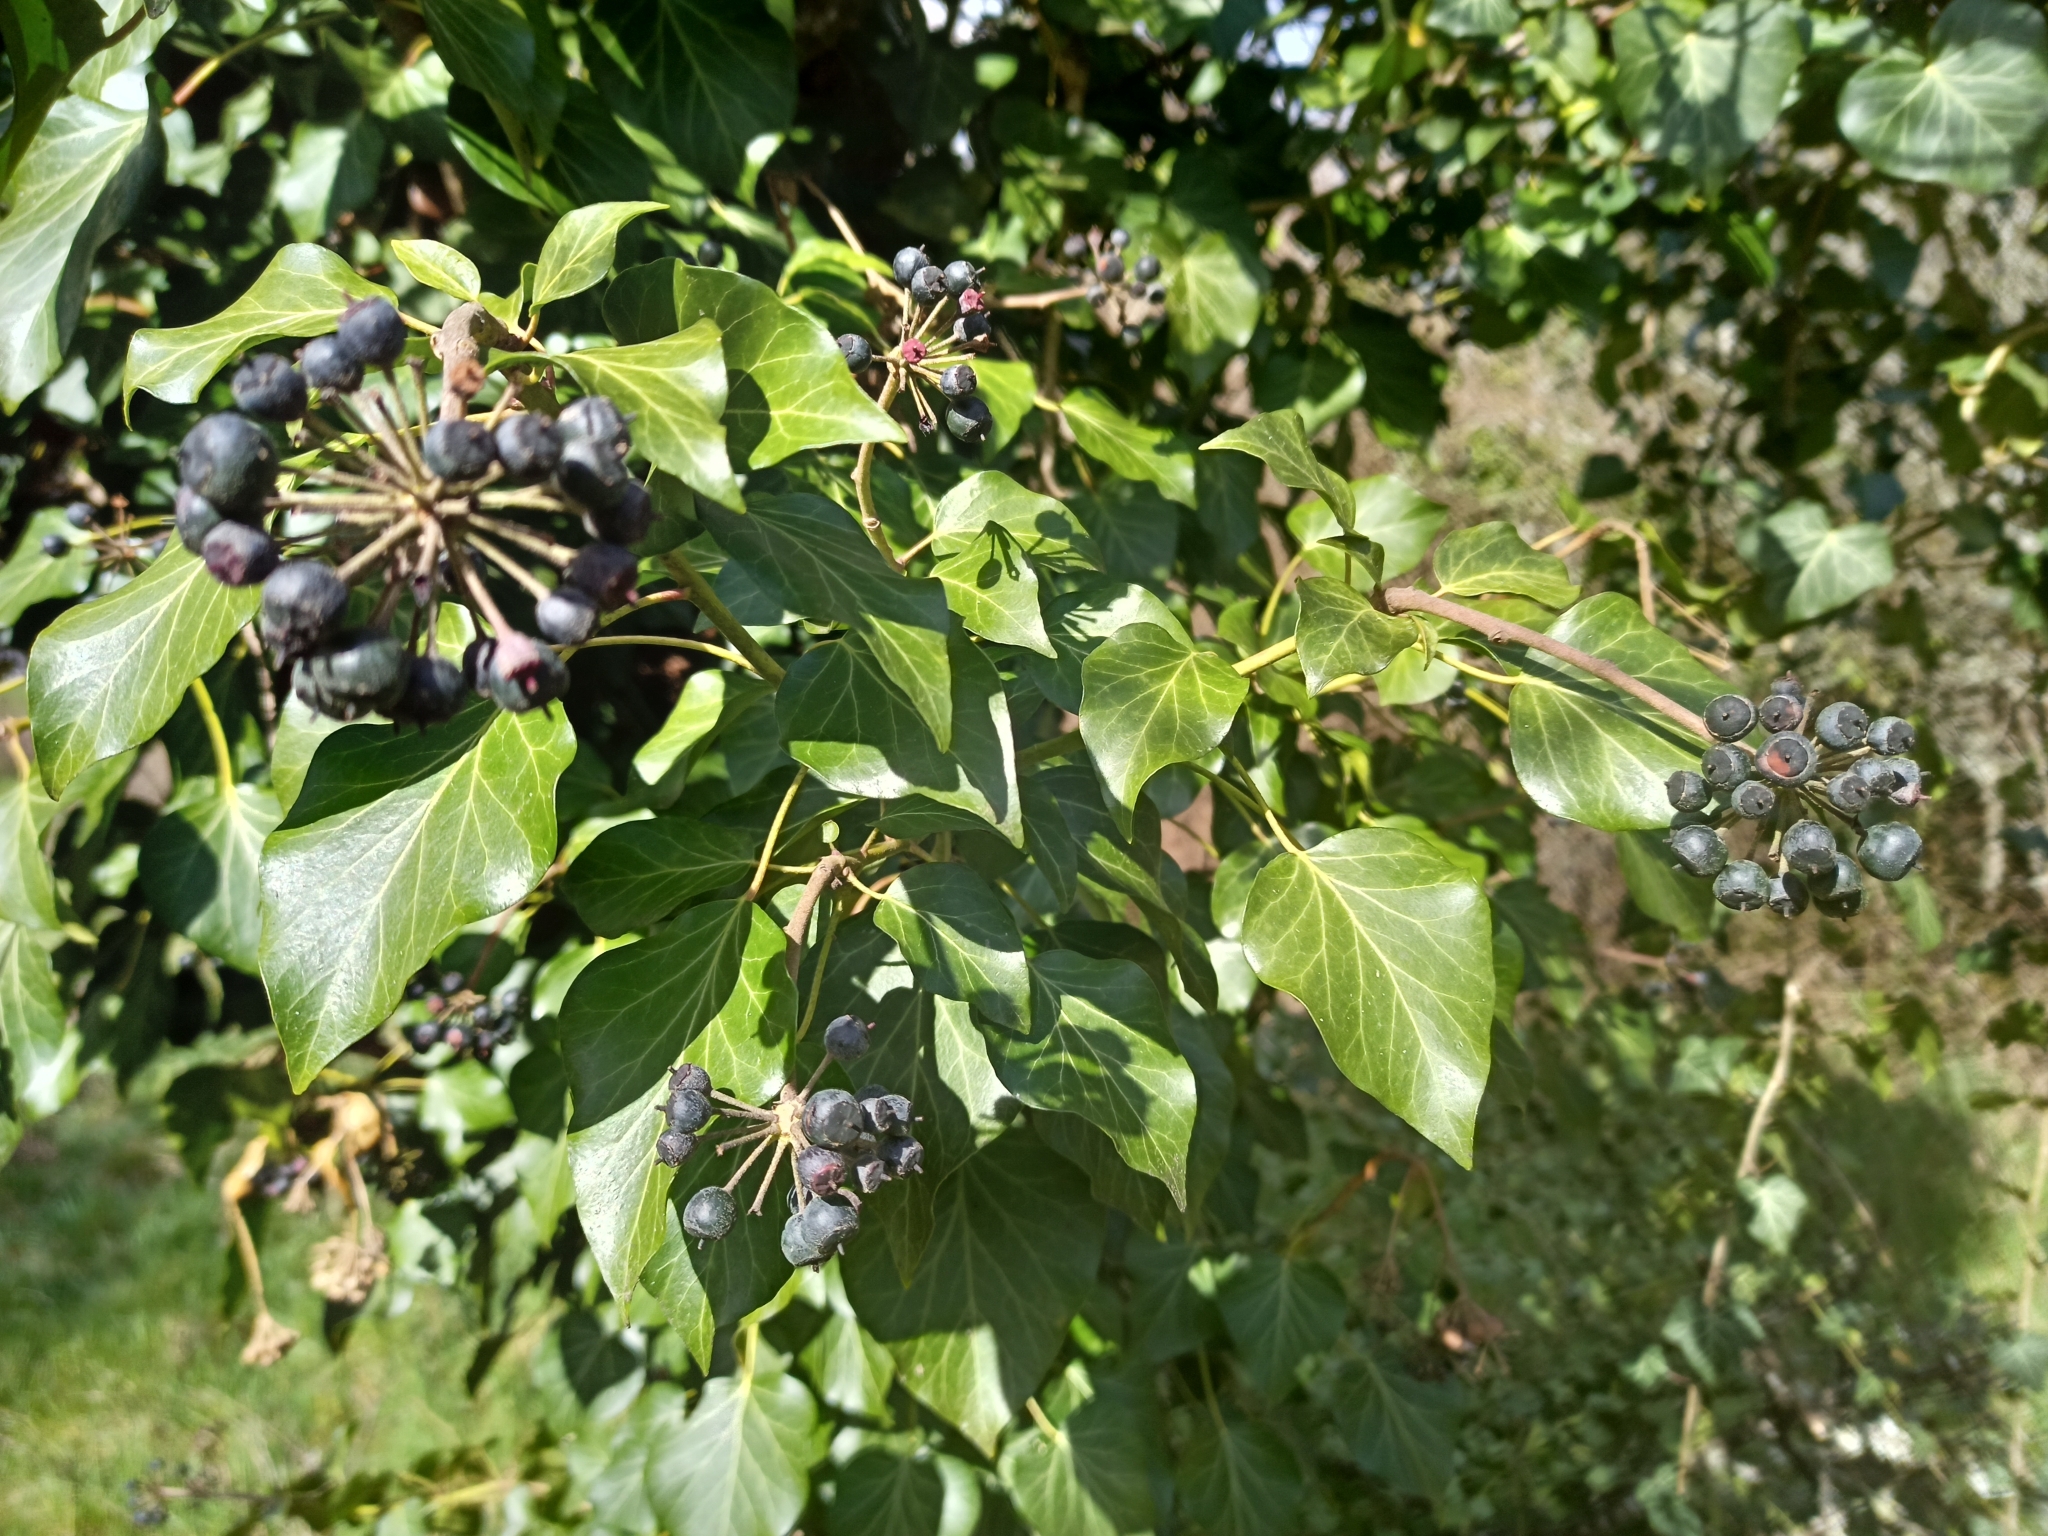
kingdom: Plantae
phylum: Tracheophyta
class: Magnoliopsida
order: Apiales
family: Araliaceae
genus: Hedera
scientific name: Hedera helix
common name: Ivy
